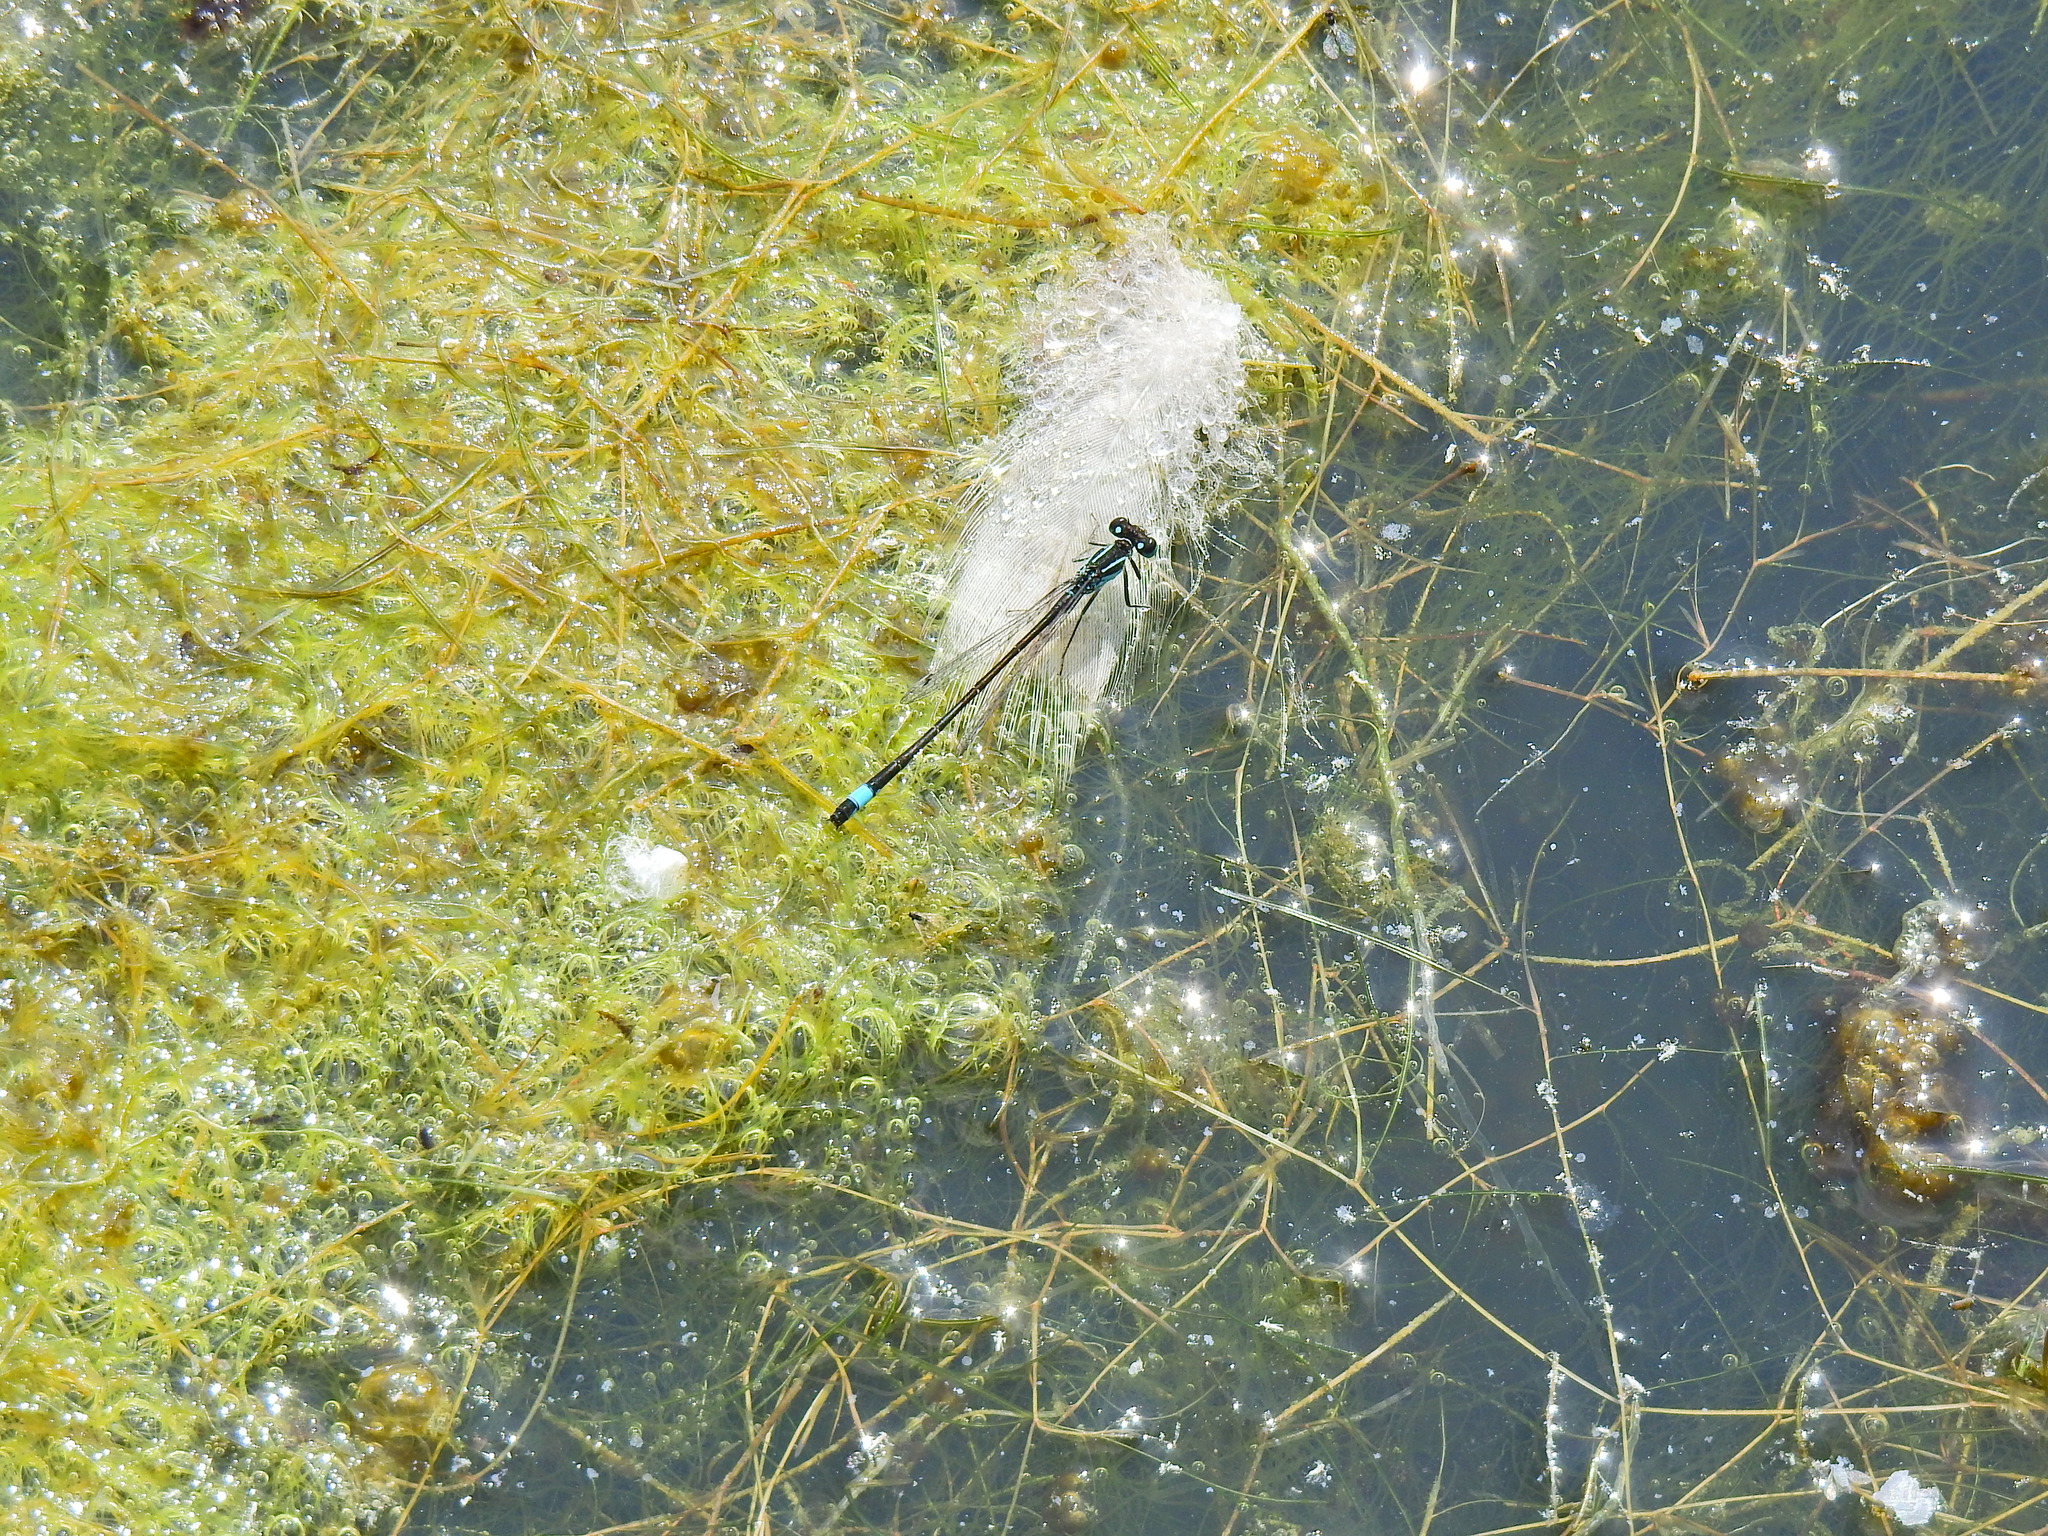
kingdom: Animalia
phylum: Arthropoda
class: Insecta
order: Odonata
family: Coenagrionidae
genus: Ischnura
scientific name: Ischnura elegans
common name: Blue-tailed damselfly
